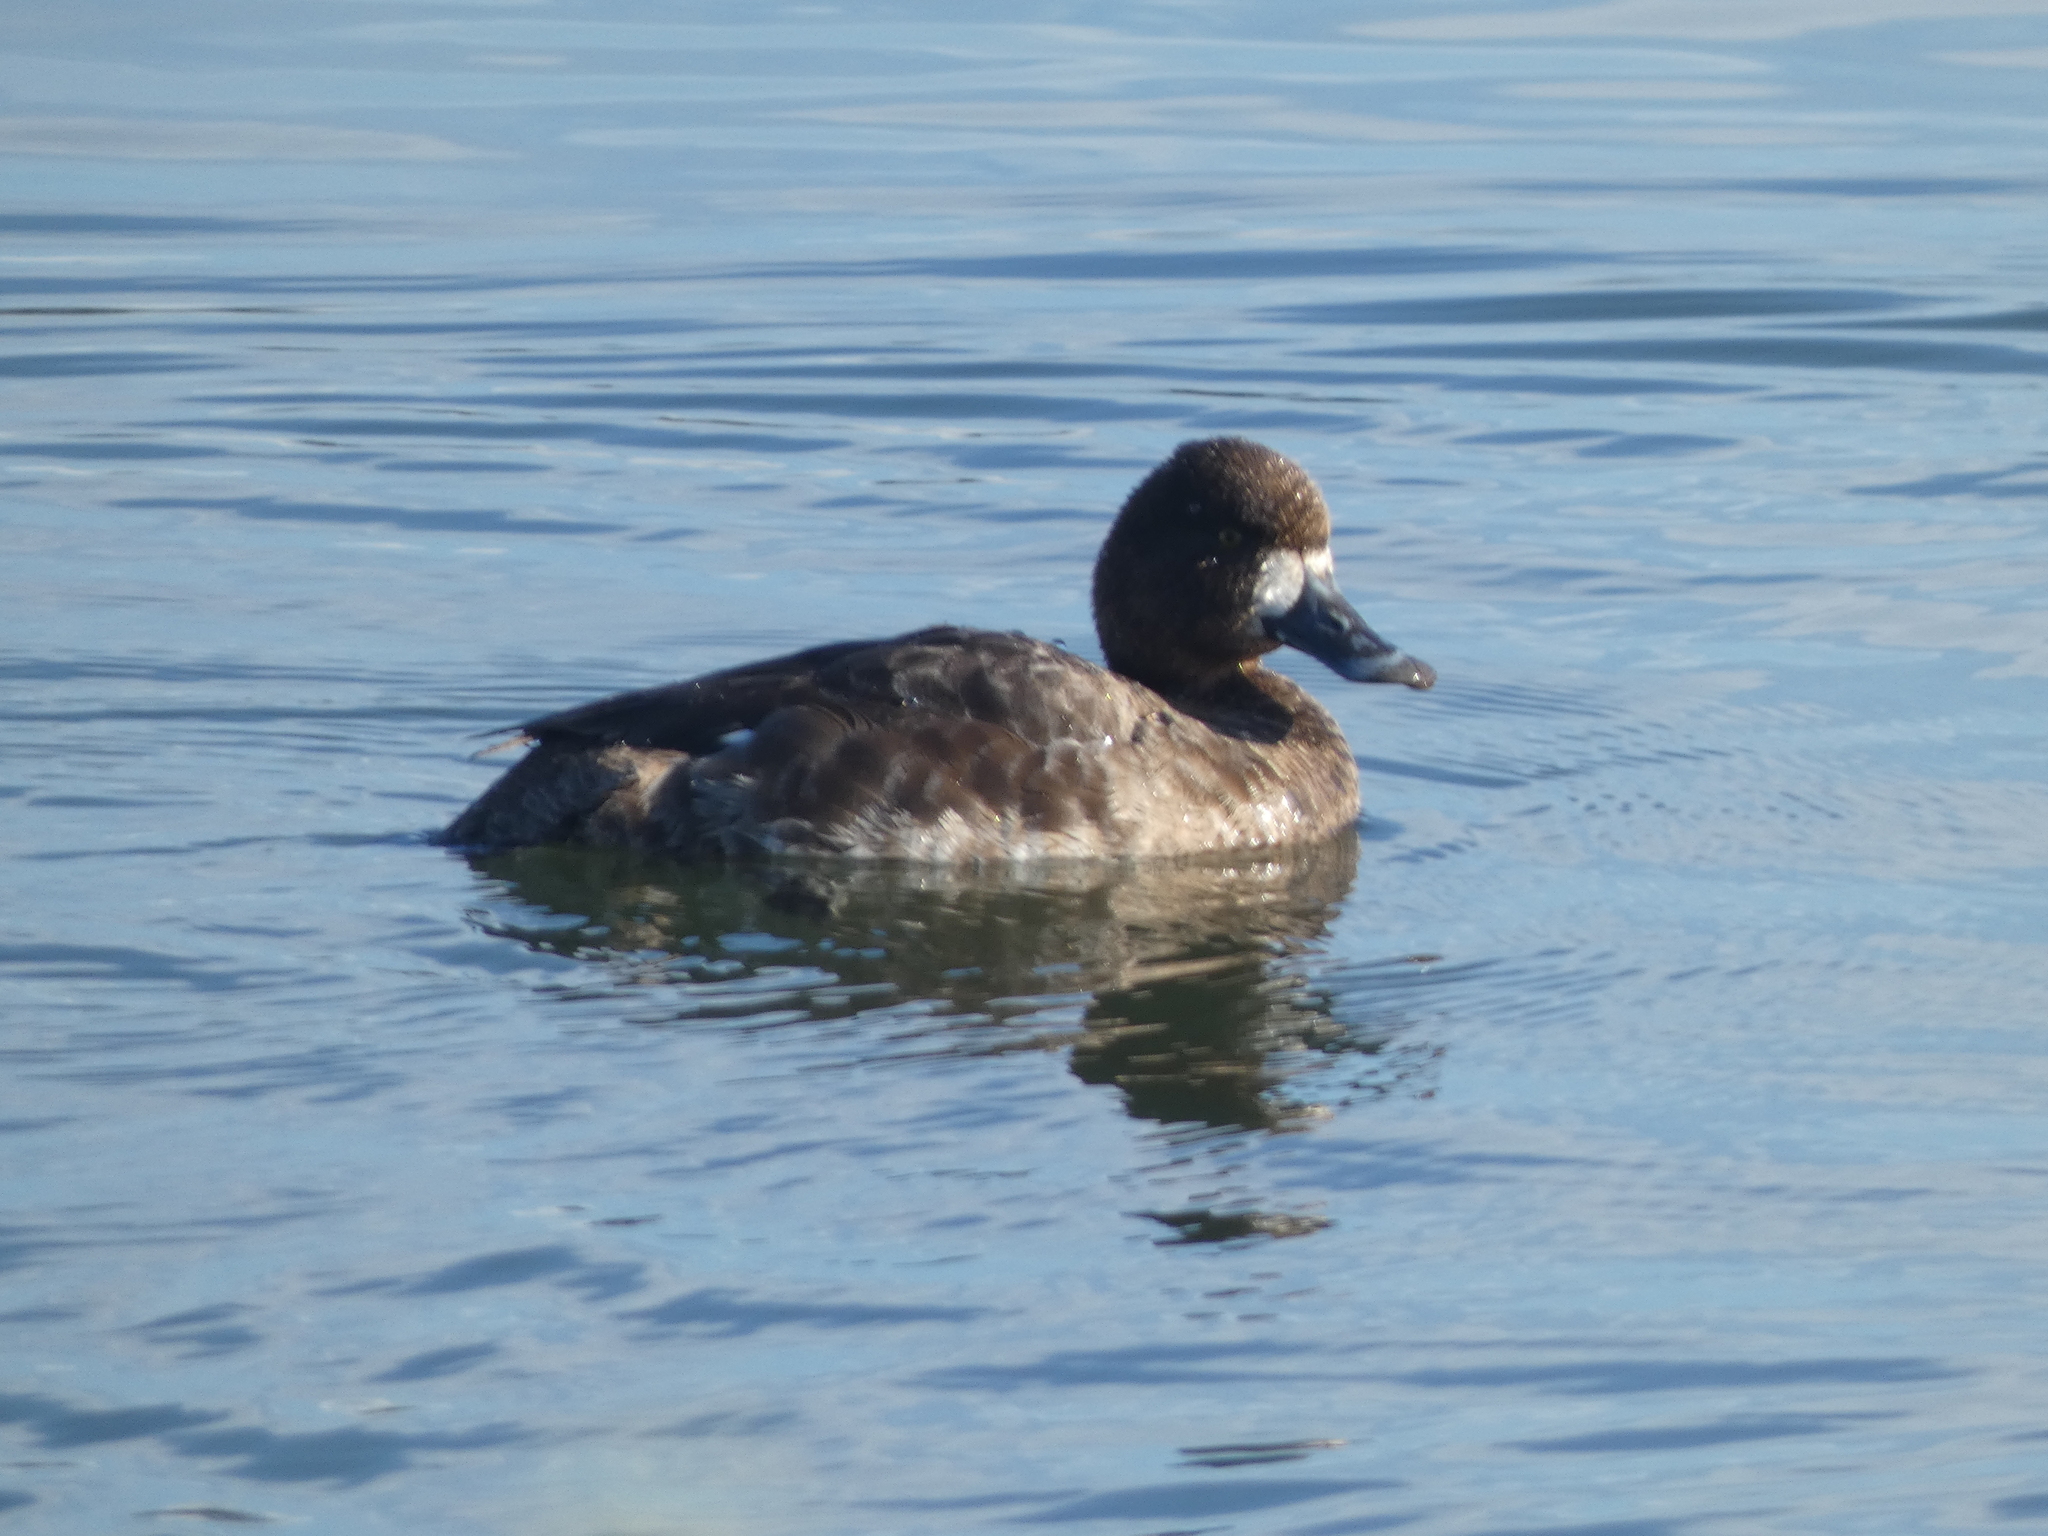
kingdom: Animalia
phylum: Chordata
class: Aves
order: Anseriformes
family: Anatidae
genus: Aythya
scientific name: Aythya affinis
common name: Lesser scaup
